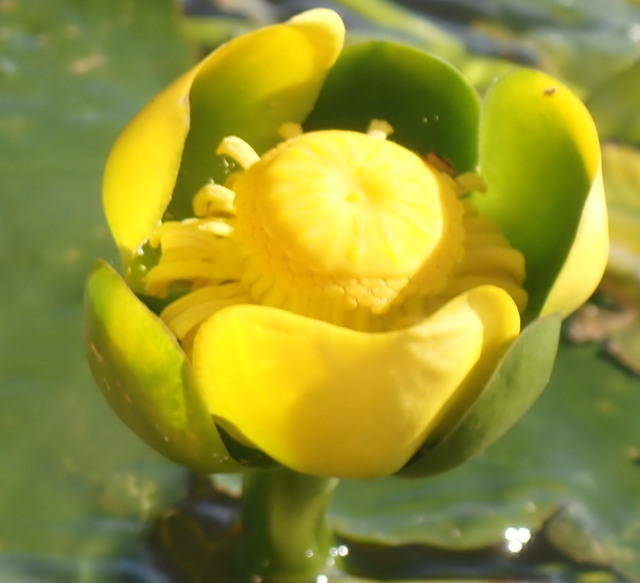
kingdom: Plantae
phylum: Tracheophyta
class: Magnoliopsida
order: Nymphaeales
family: Nymphaeaceae
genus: Nuphar
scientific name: Nuphar advena
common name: Spatter-dock
